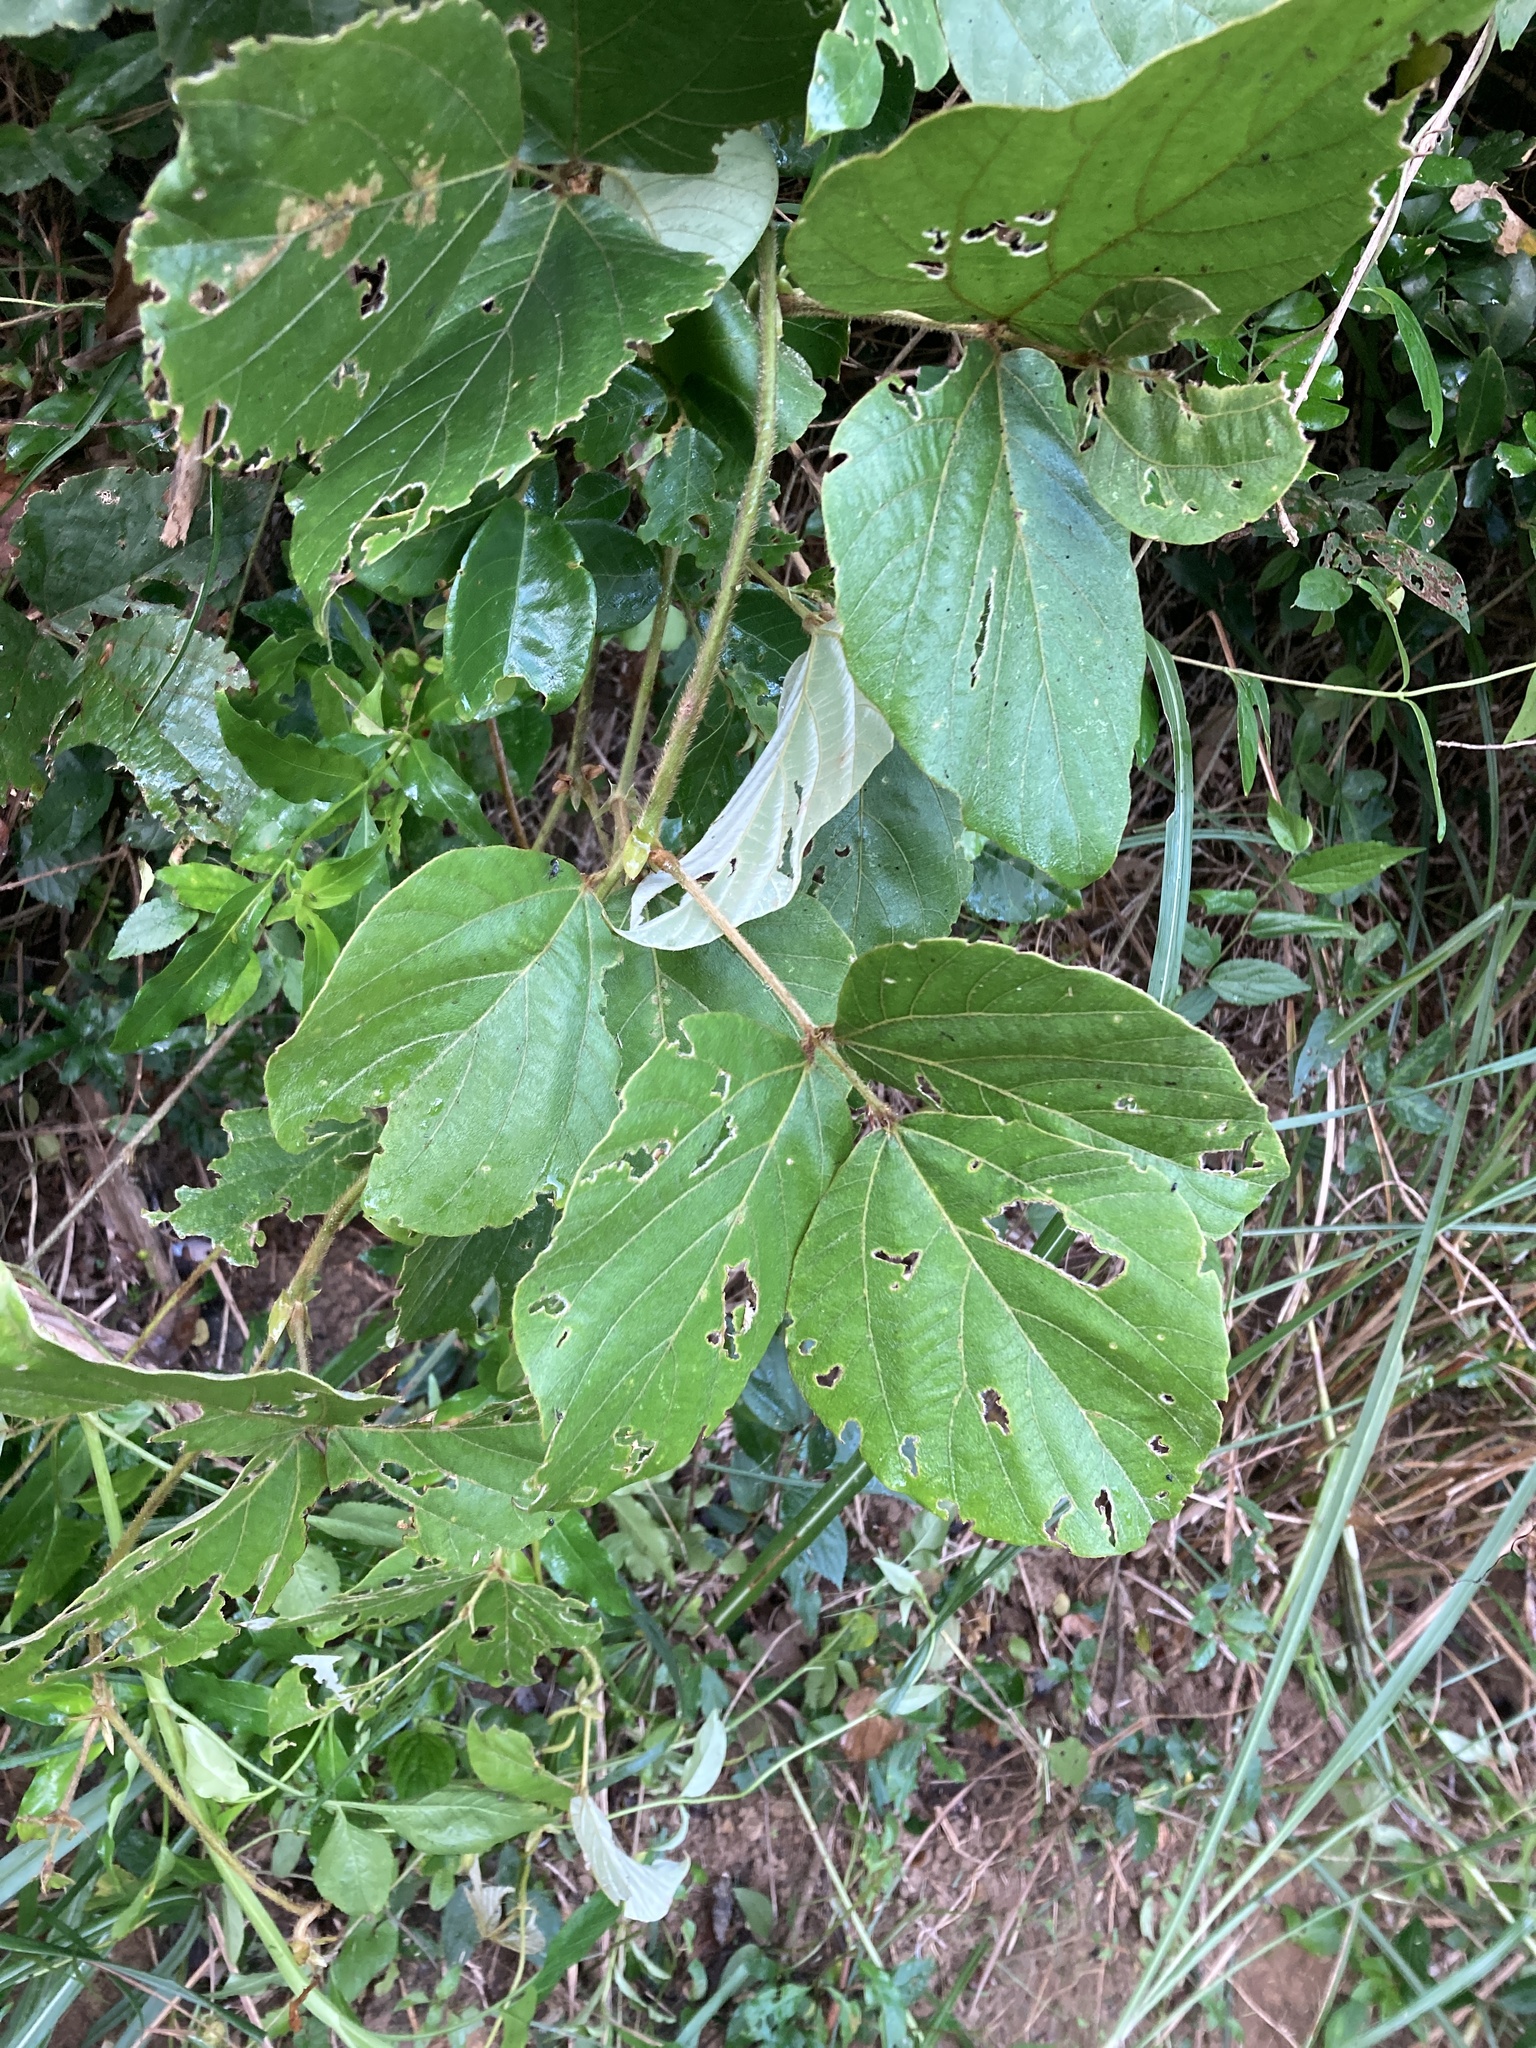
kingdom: Plantae
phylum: Tracheophyta
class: Magnoliopsida
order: Fabales
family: Fabaceae
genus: Pueraria
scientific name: Pueraria montana
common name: Kudzu
